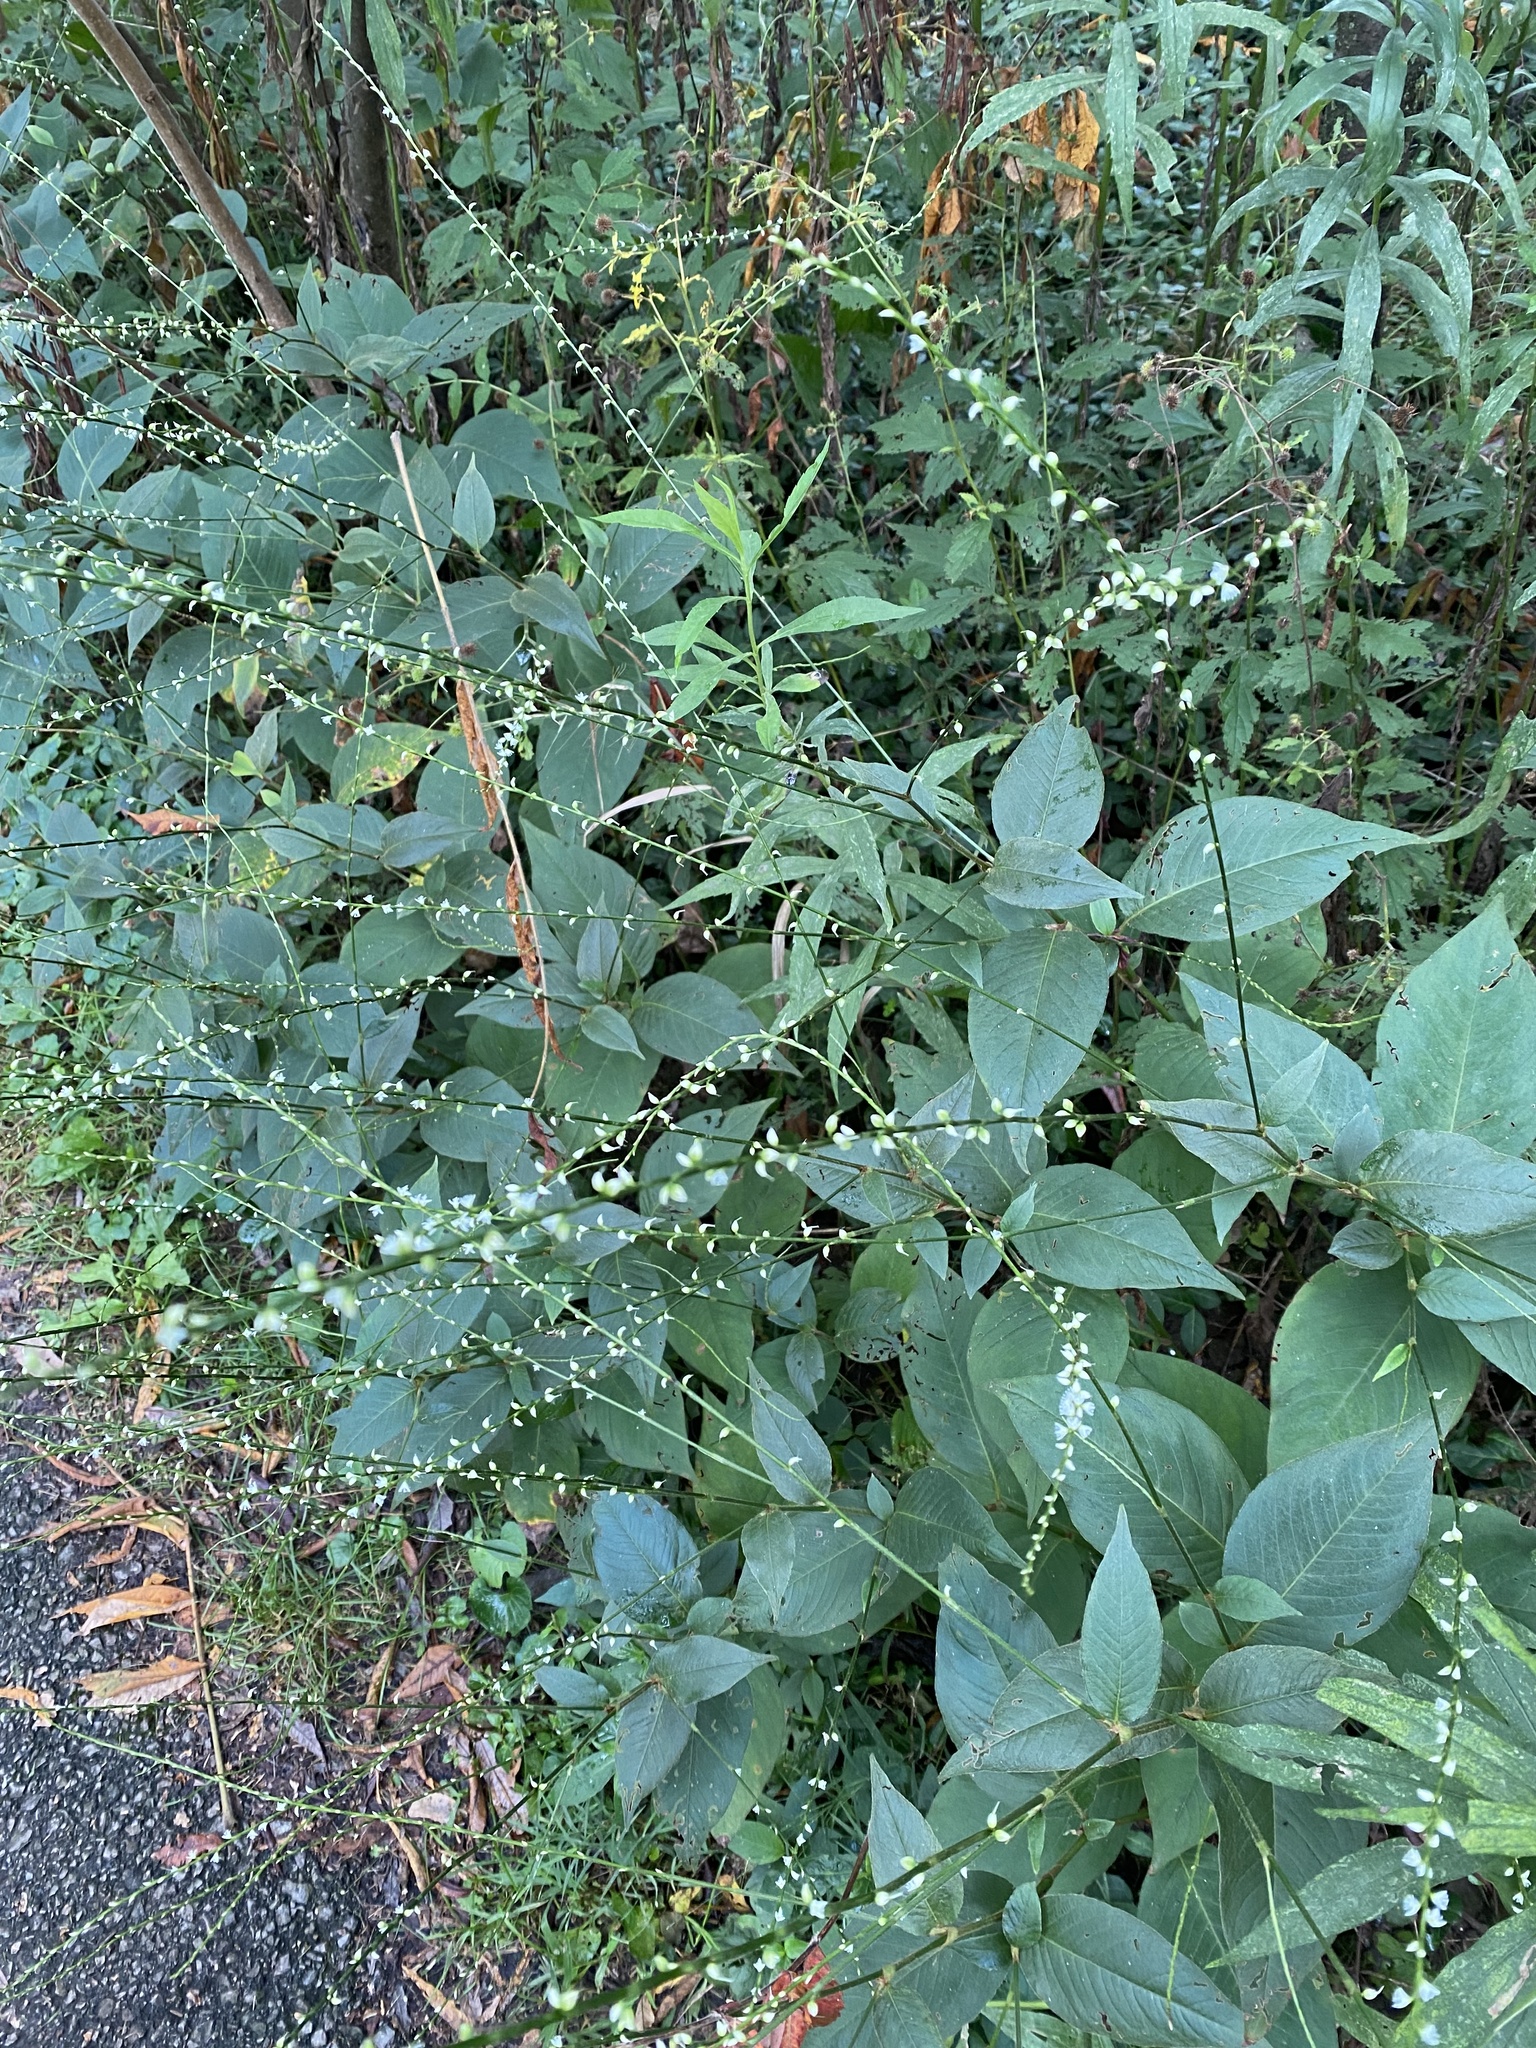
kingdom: Plantae
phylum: Tracheophyta
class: Magnoliopsida
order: Caryophyllales
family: Polygonaceae
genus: Persicaria
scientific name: Persicaria virginiana
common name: Jumpseed
